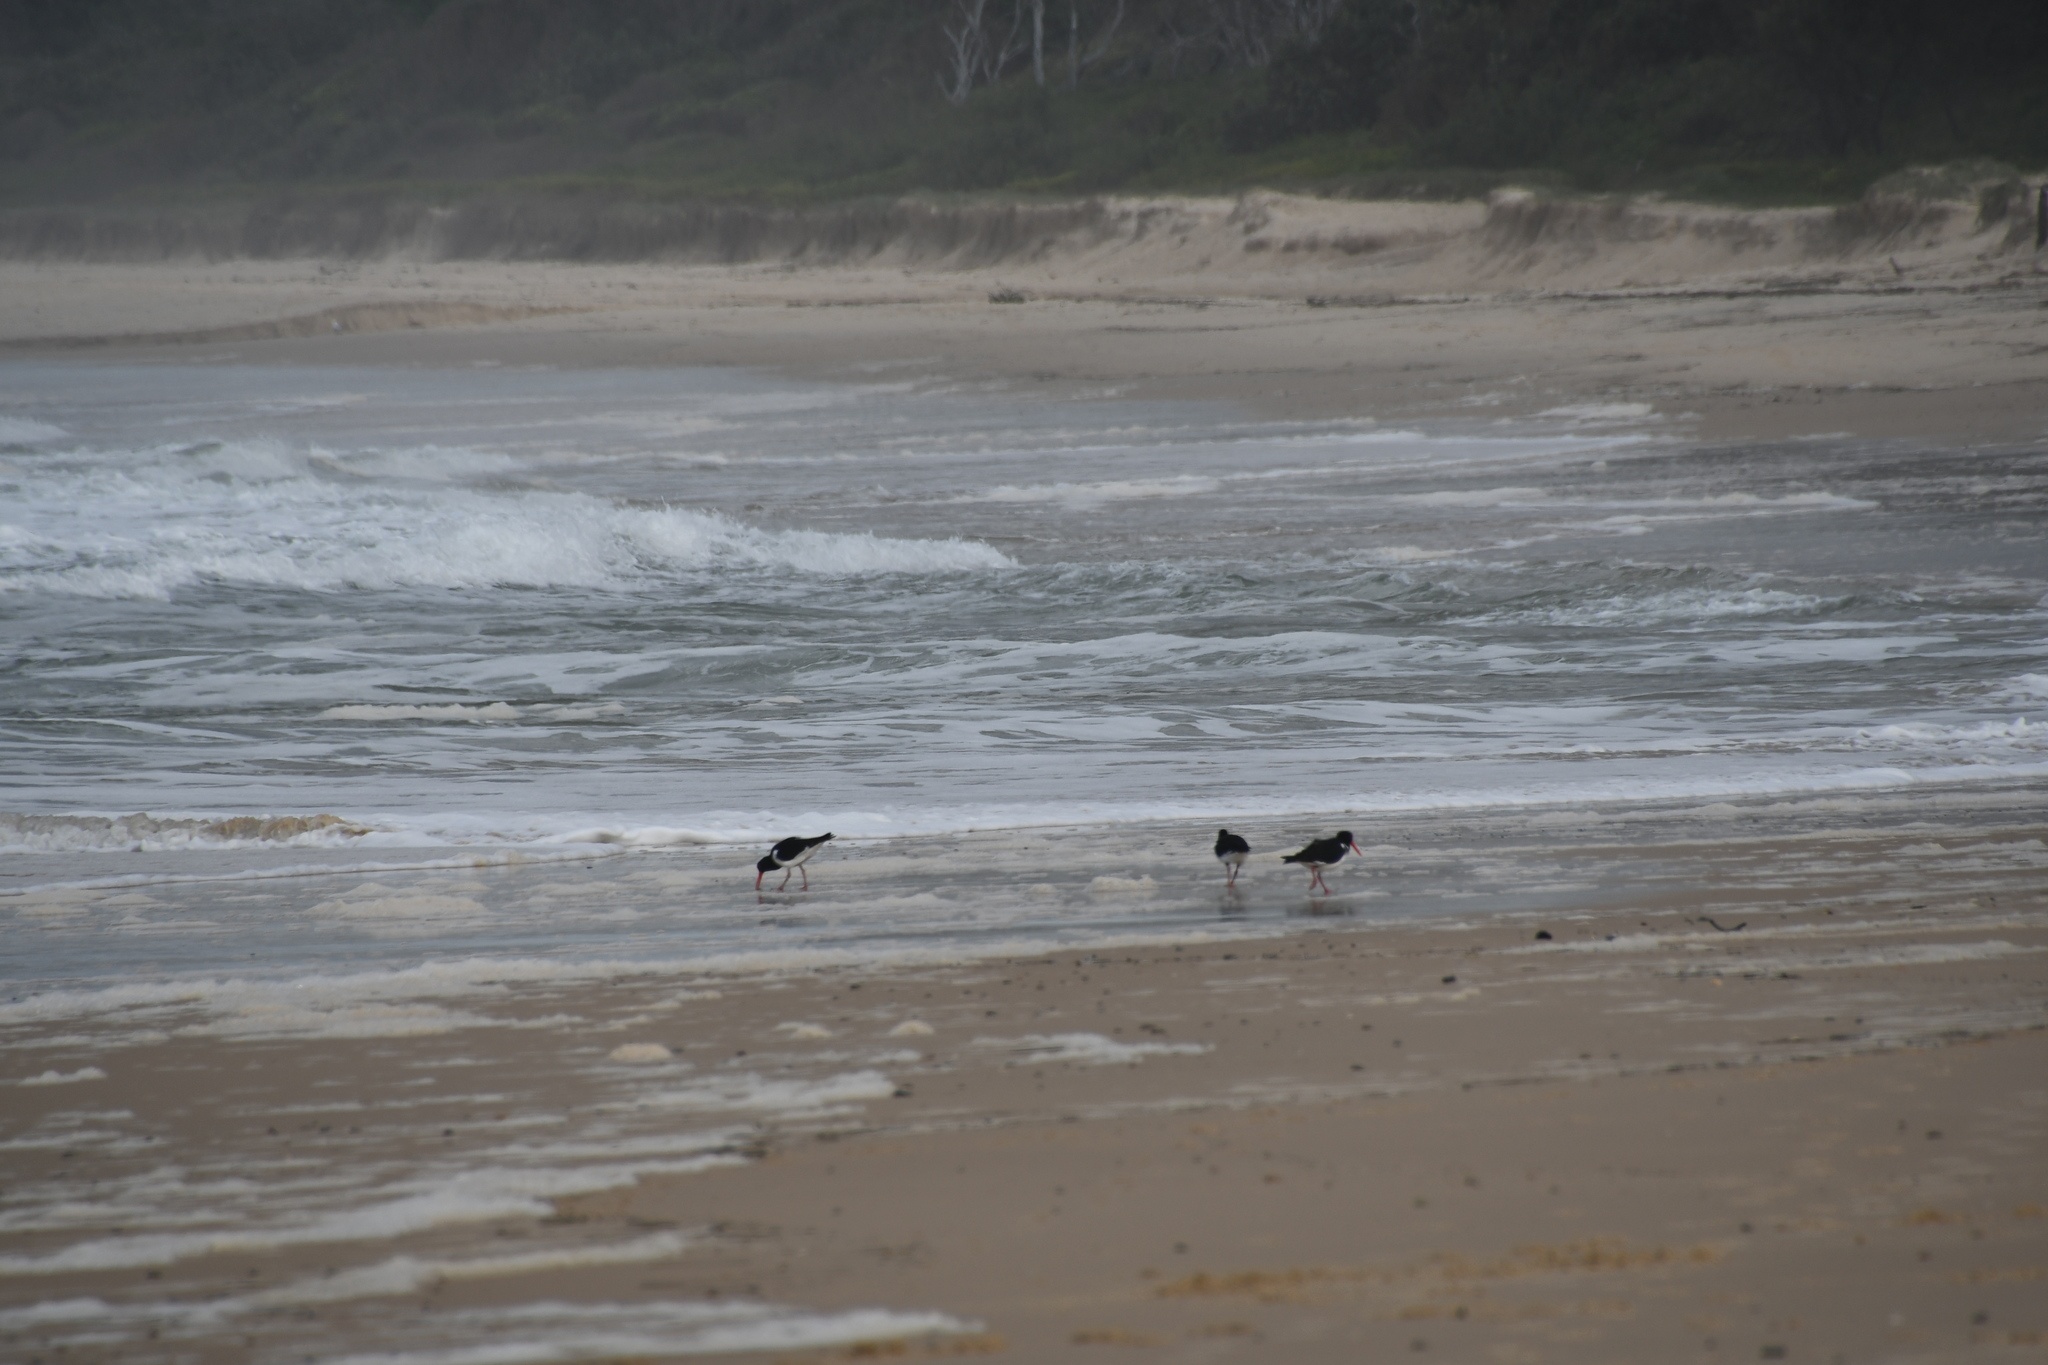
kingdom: Animalia
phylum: Chordata
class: Aves
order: Charadriiformes
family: Haematopodidae
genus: Haematopus
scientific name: Haematopus longirostris
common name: Pied oystercatcher
